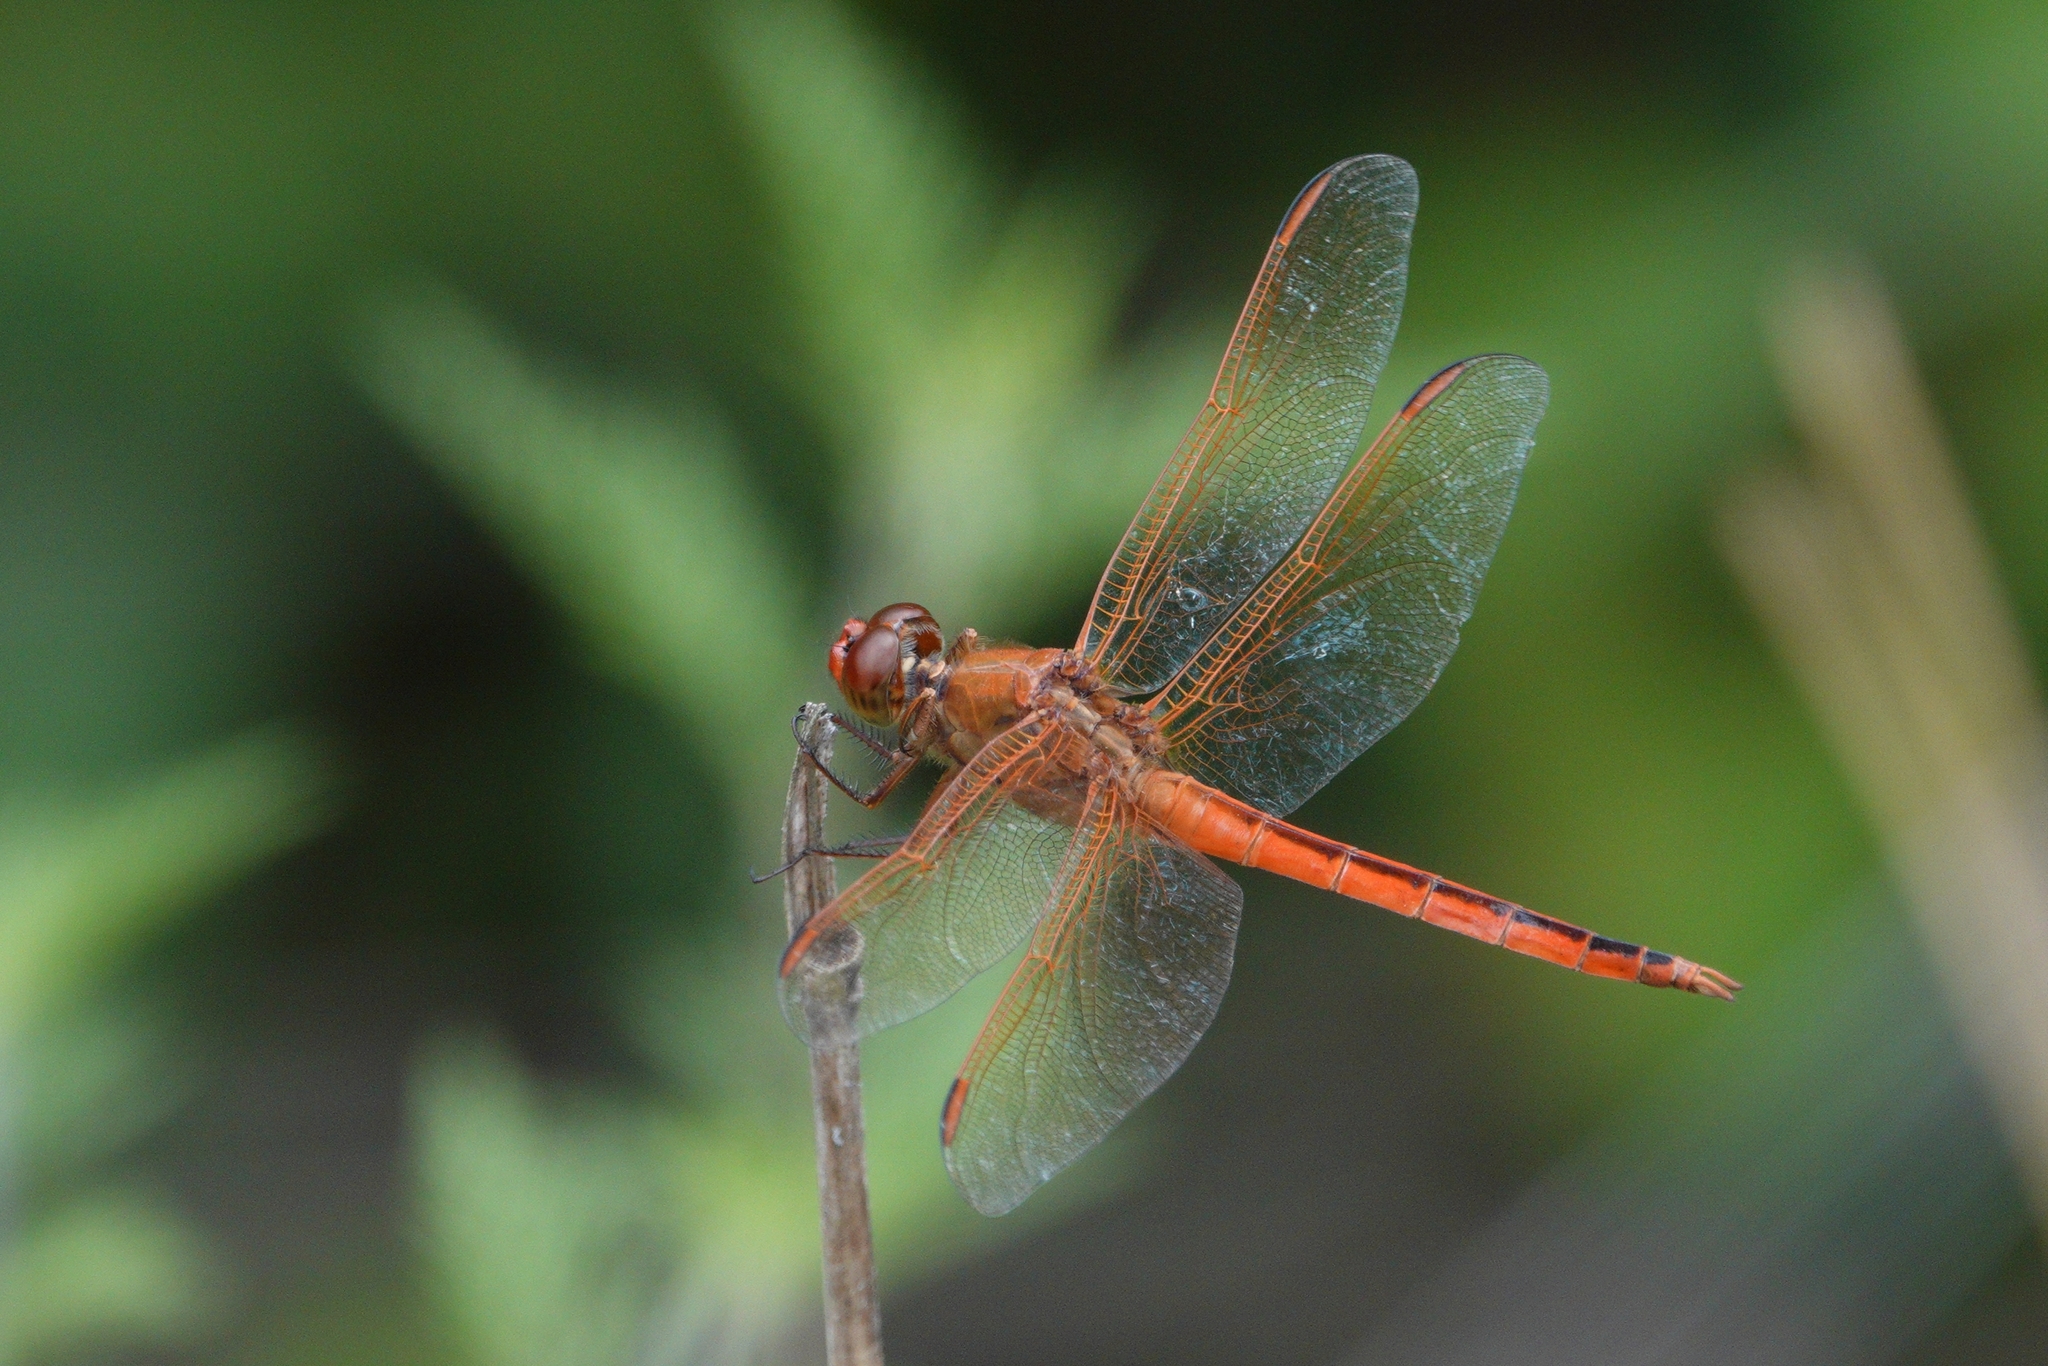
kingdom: Animalia
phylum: Arthropoda
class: Insecta
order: Odonata
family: Libellulidae
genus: Libellula
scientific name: Libellula needhami
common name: Needham's skimmer
